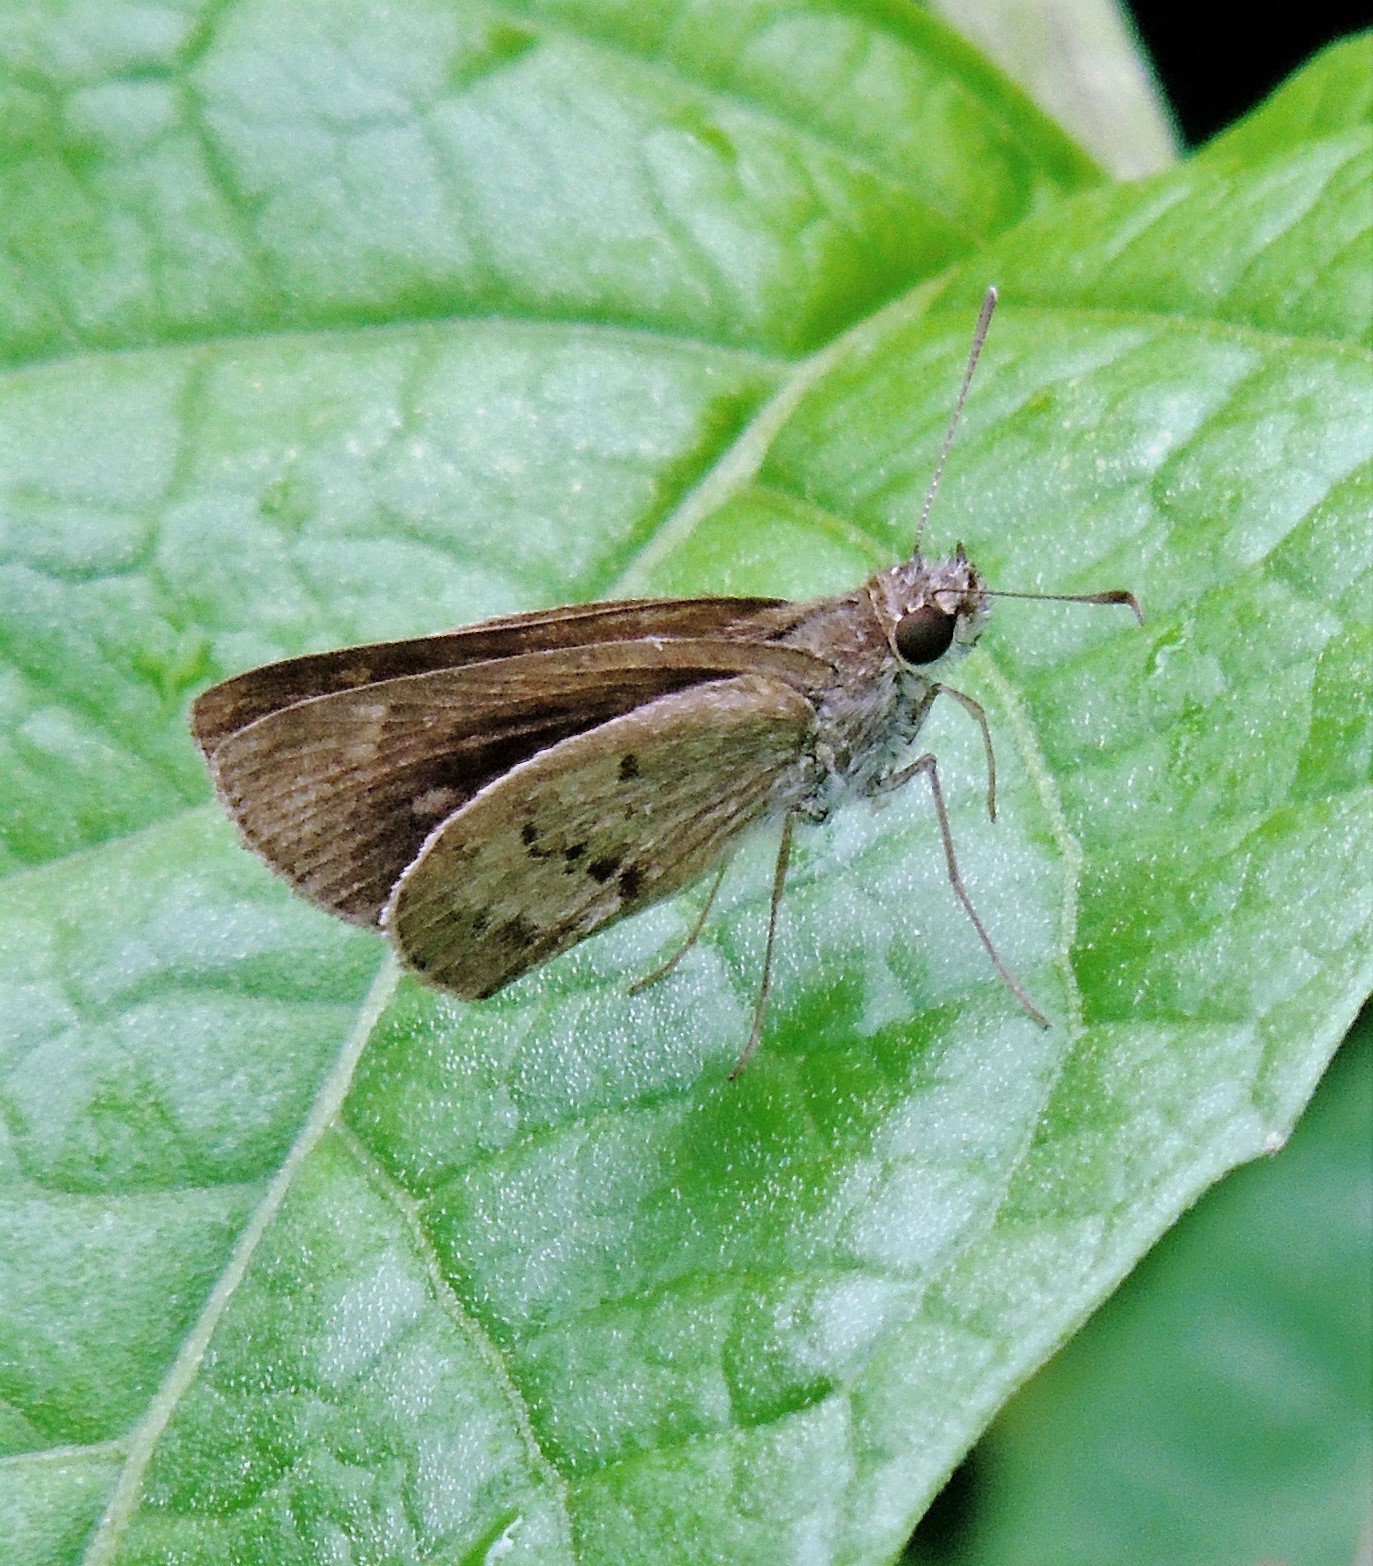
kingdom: Animalia
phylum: Arthropoda
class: Insecta
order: Lepidoptera
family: Hesperiidae
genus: Cymaenes
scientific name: Cymaenes gisca
